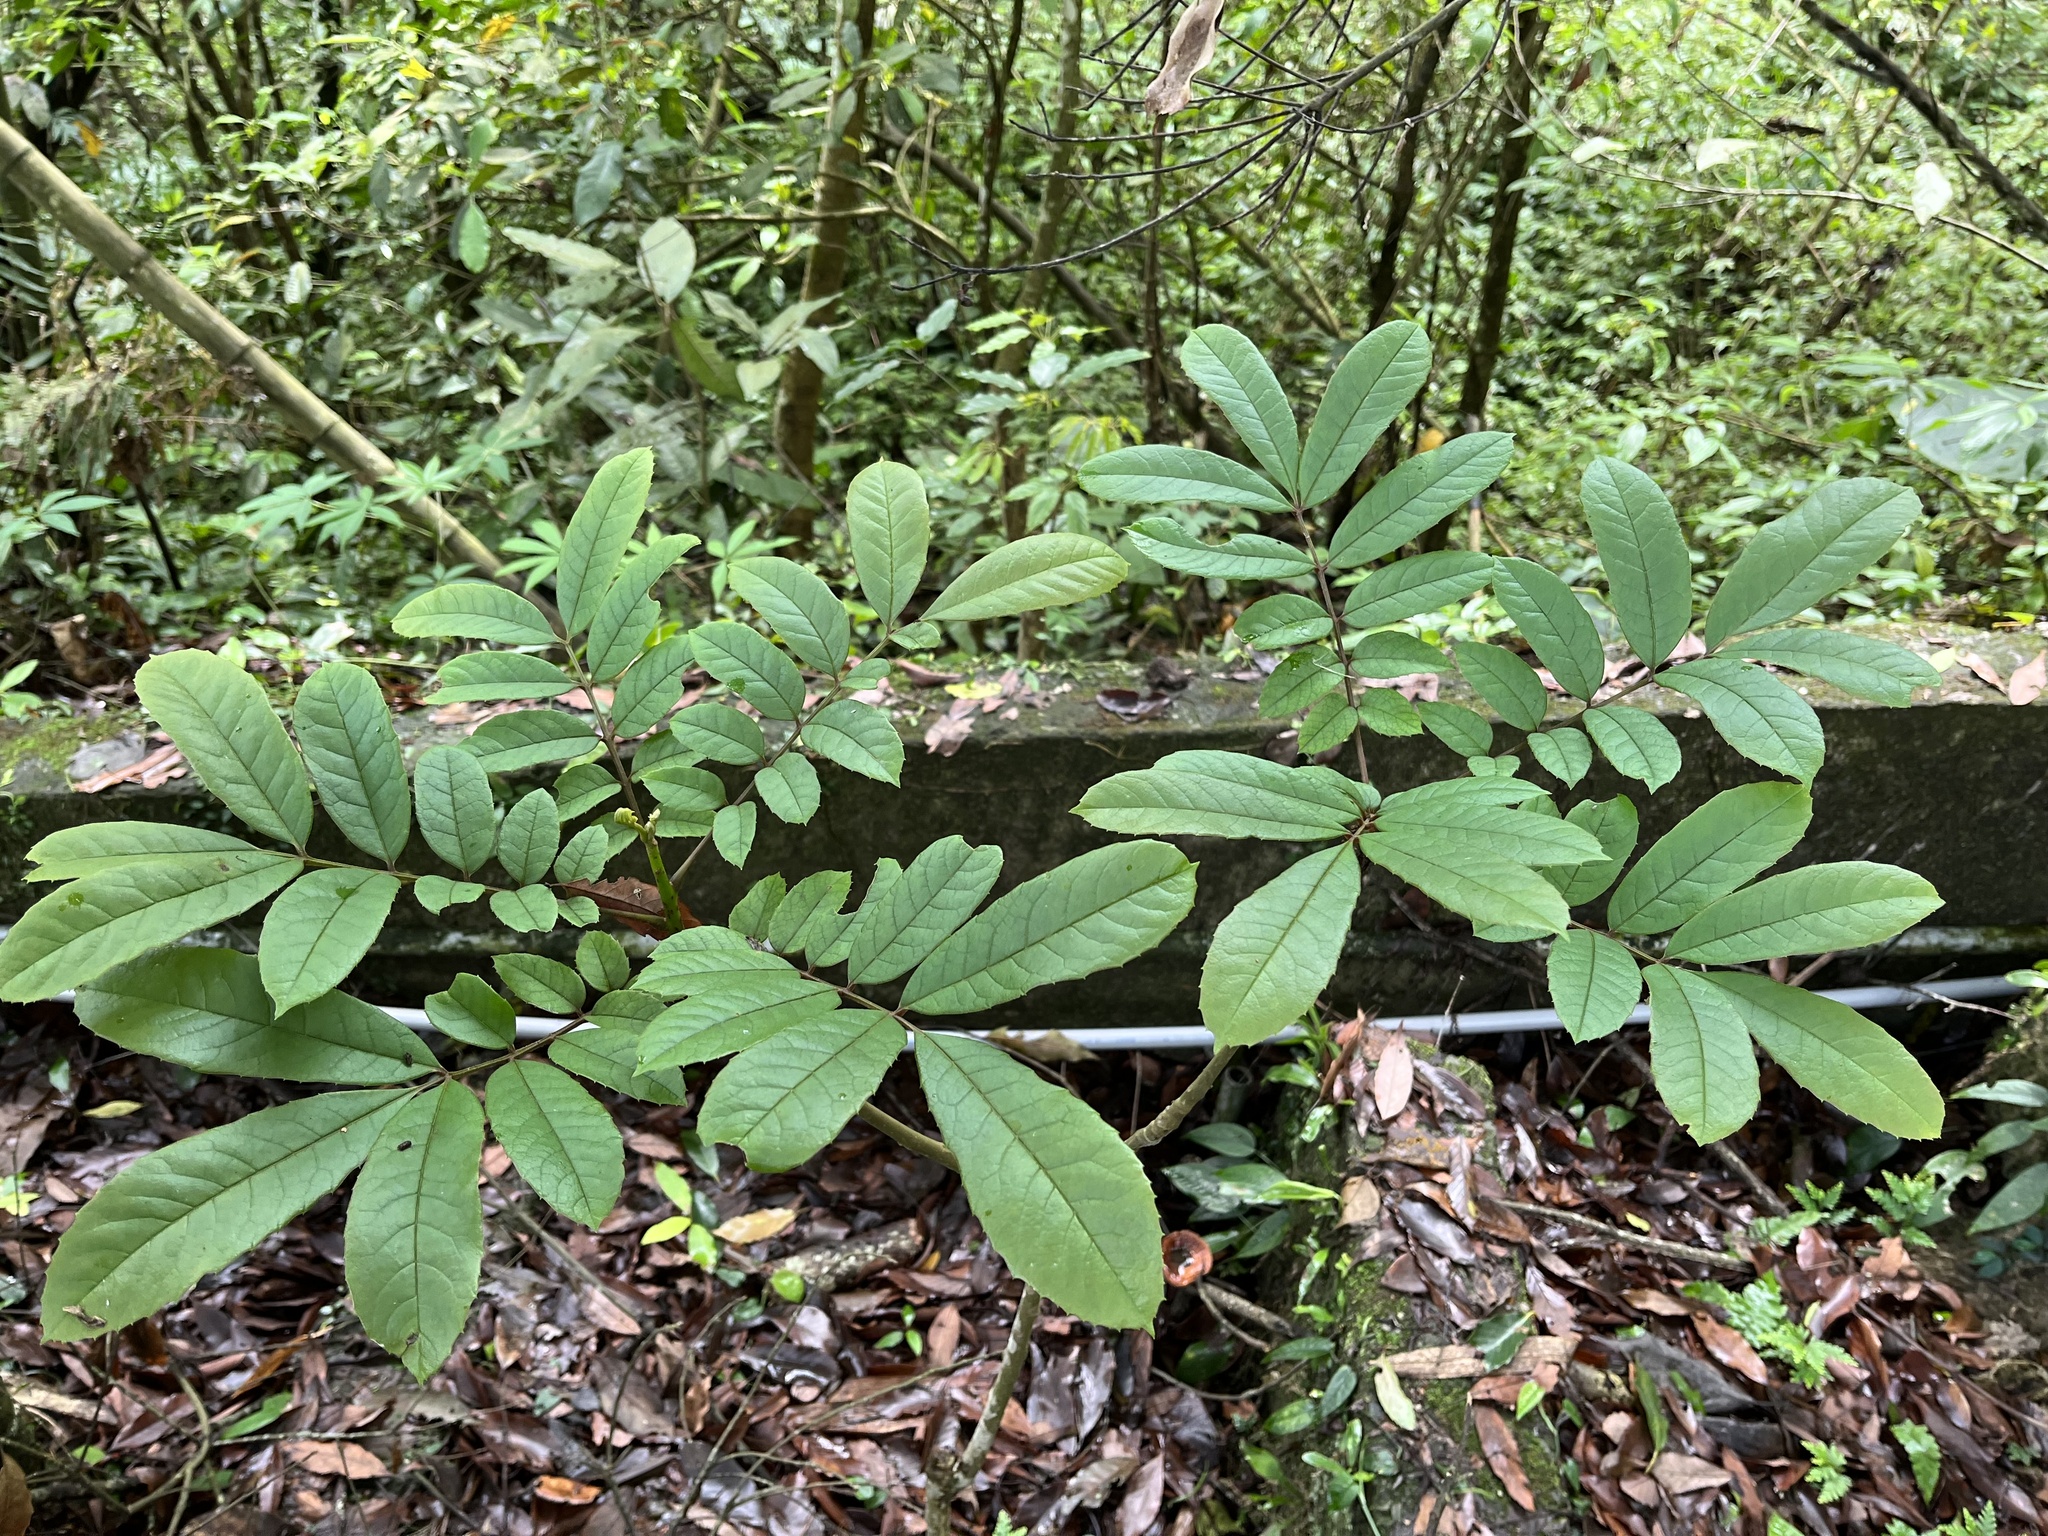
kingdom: Plantae
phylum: Tracheophyta
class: Magnoliopsida
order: Proteales
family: Sabiaceae
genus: Meliosma
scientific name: Meliosma rhoifolia
